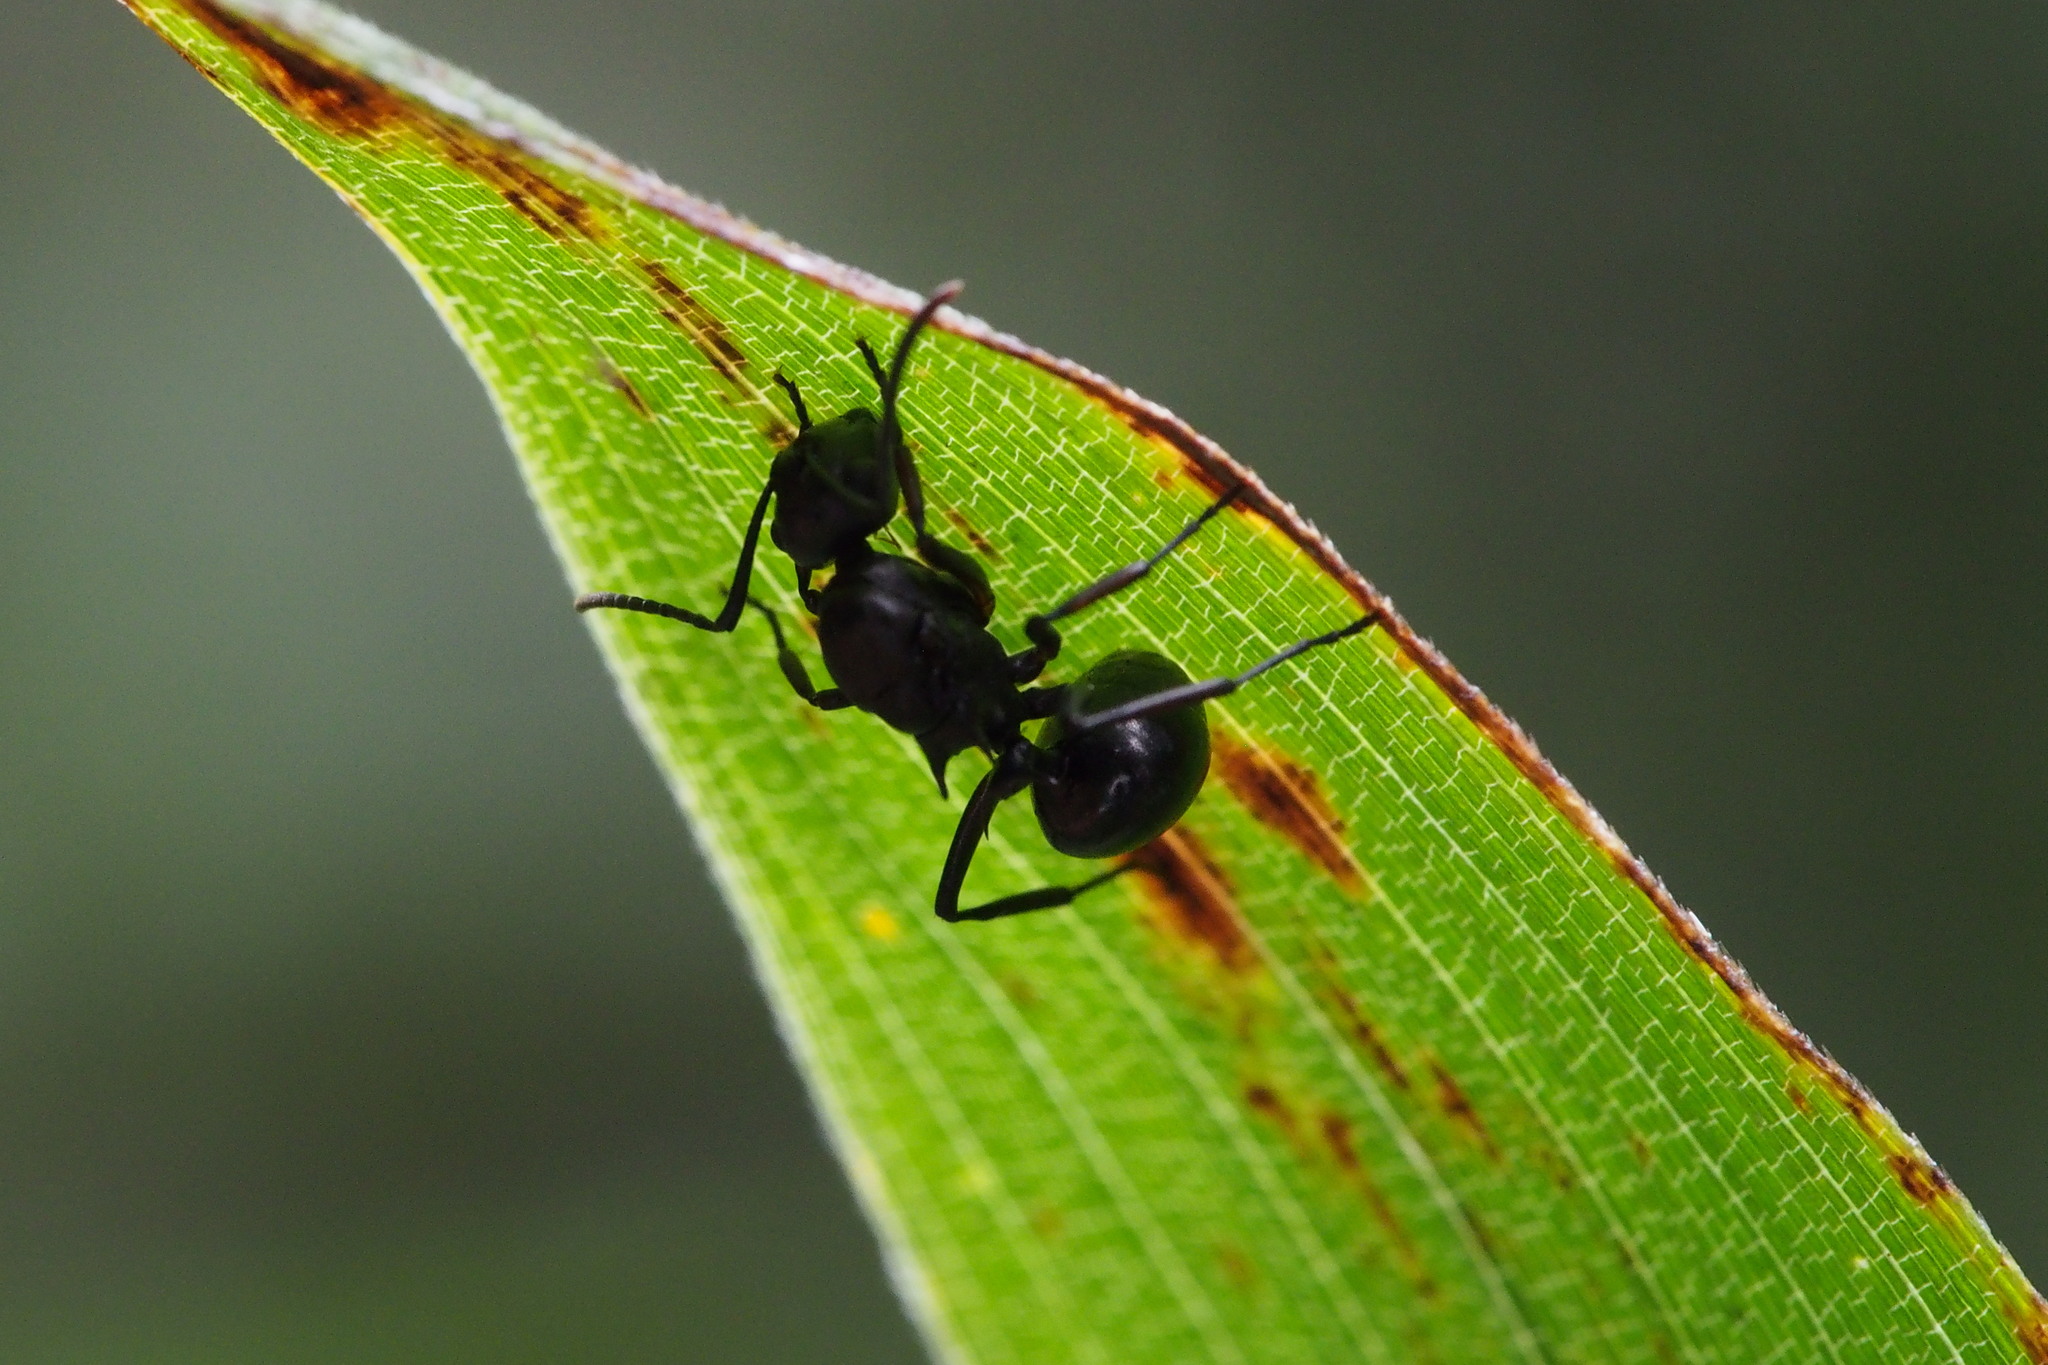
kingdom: Animalia
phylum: Arthropoda
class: Insecta
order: Hymenoptera
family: Formicidae
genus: Polyrhachis
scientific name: Polyrhachis moesta
